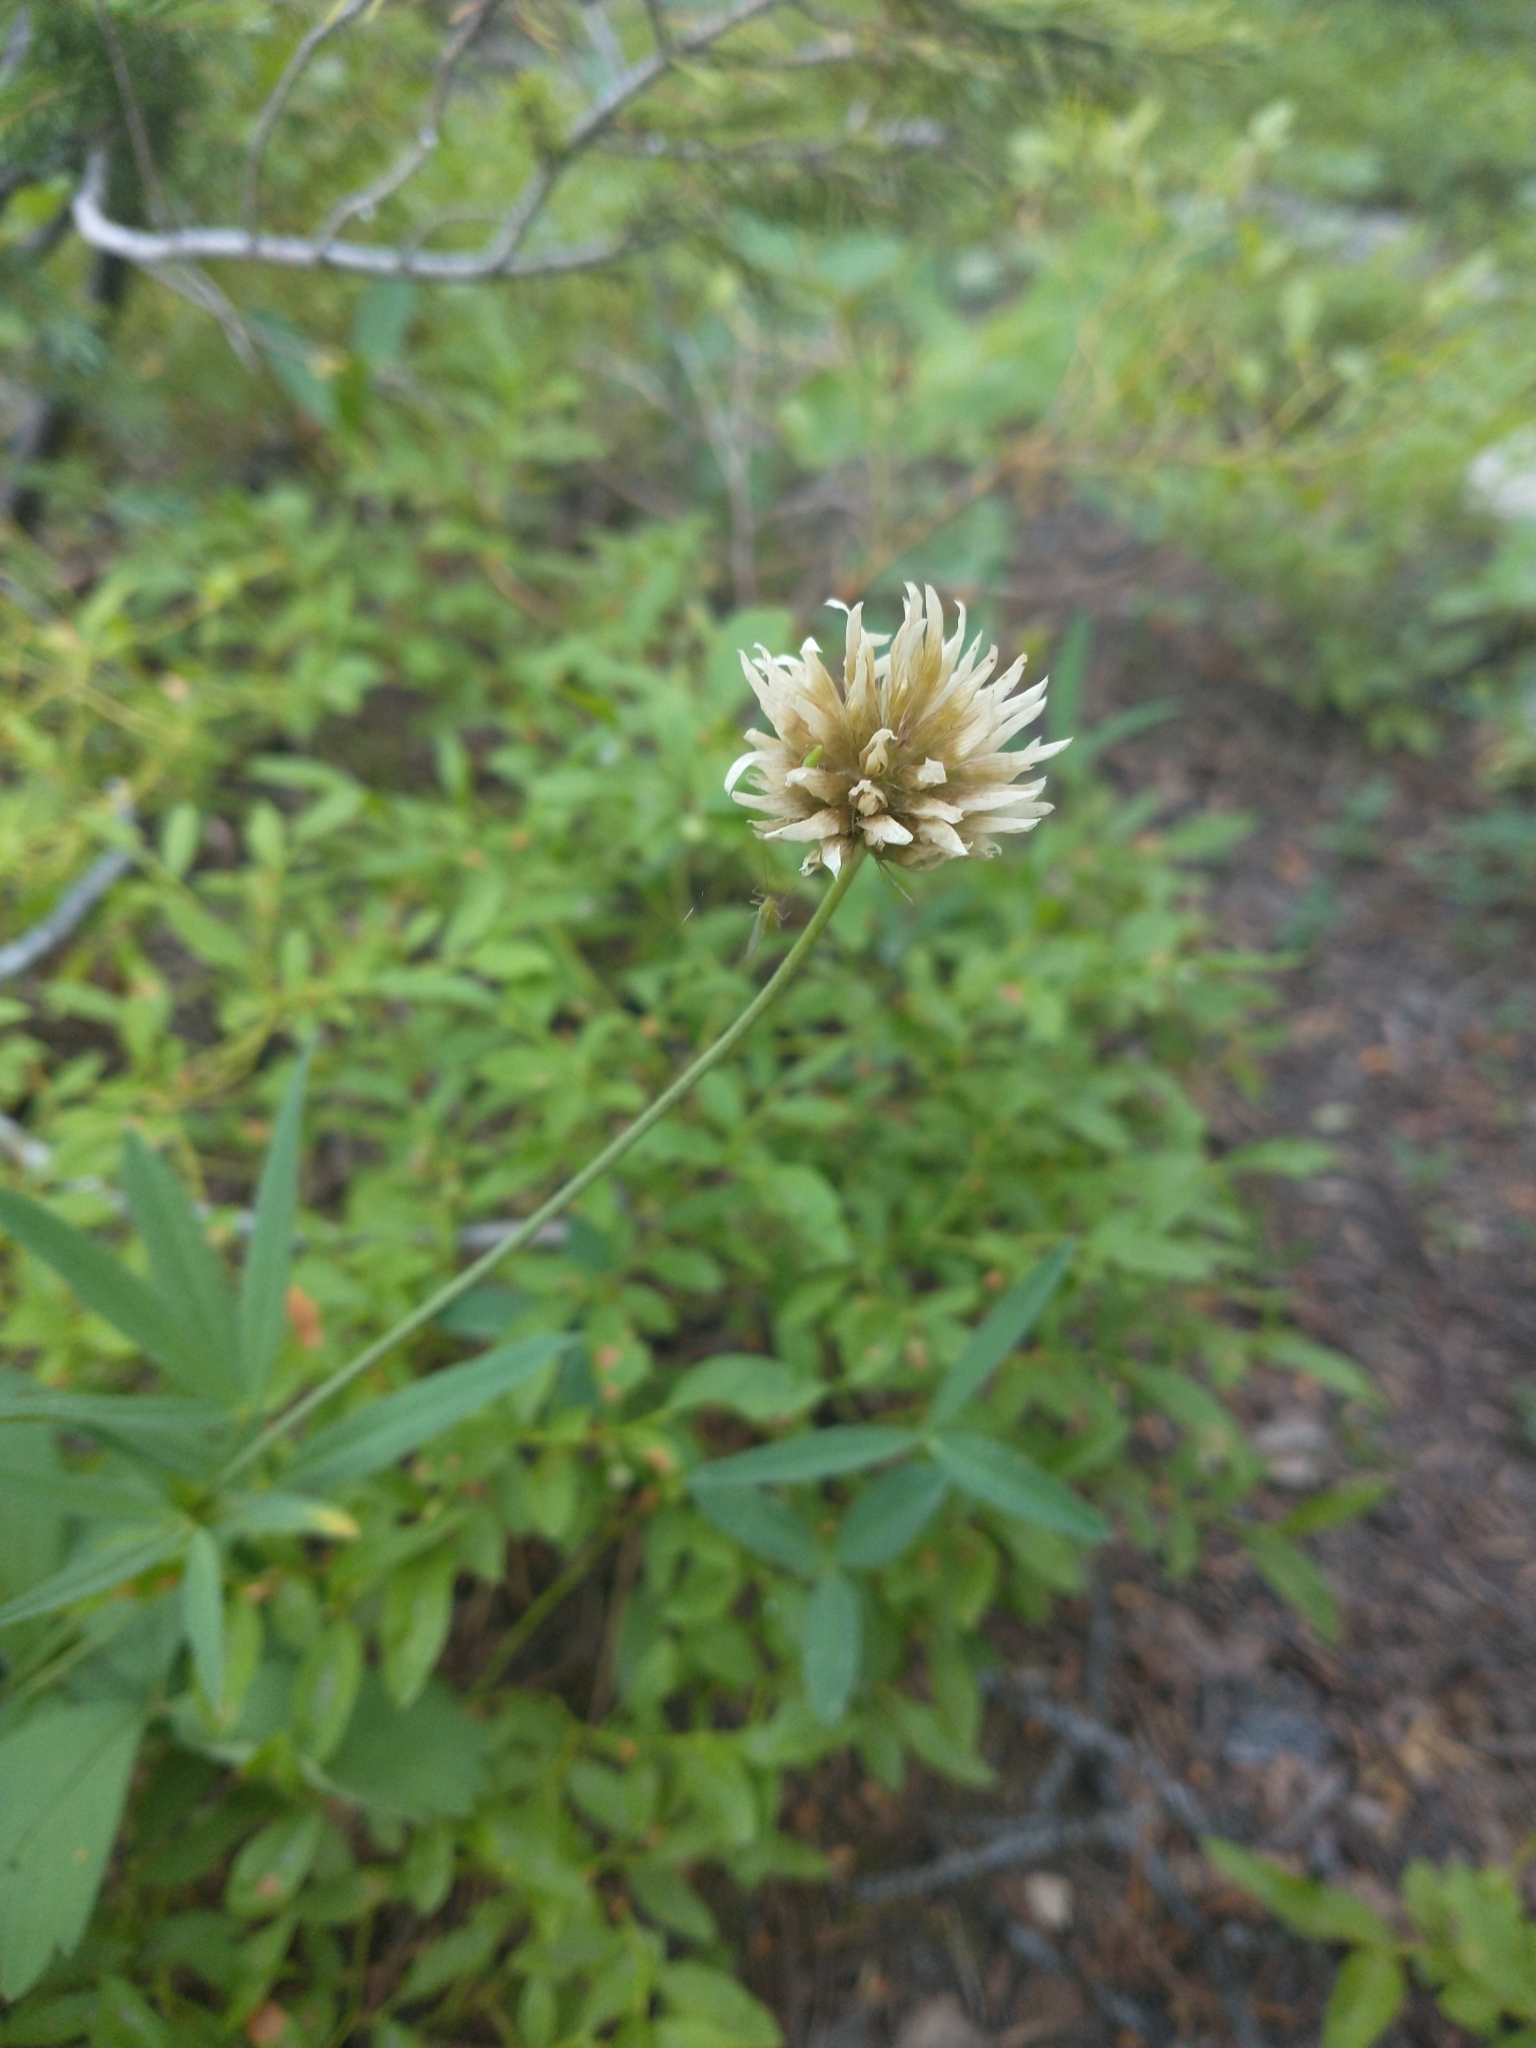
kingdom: Plantae
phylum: Tracheophyta
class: Magnoliopsida
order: Fabales
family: Fabaceae
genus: Trifolium
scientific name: Trifolium longipes
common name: Long-stalk clover
